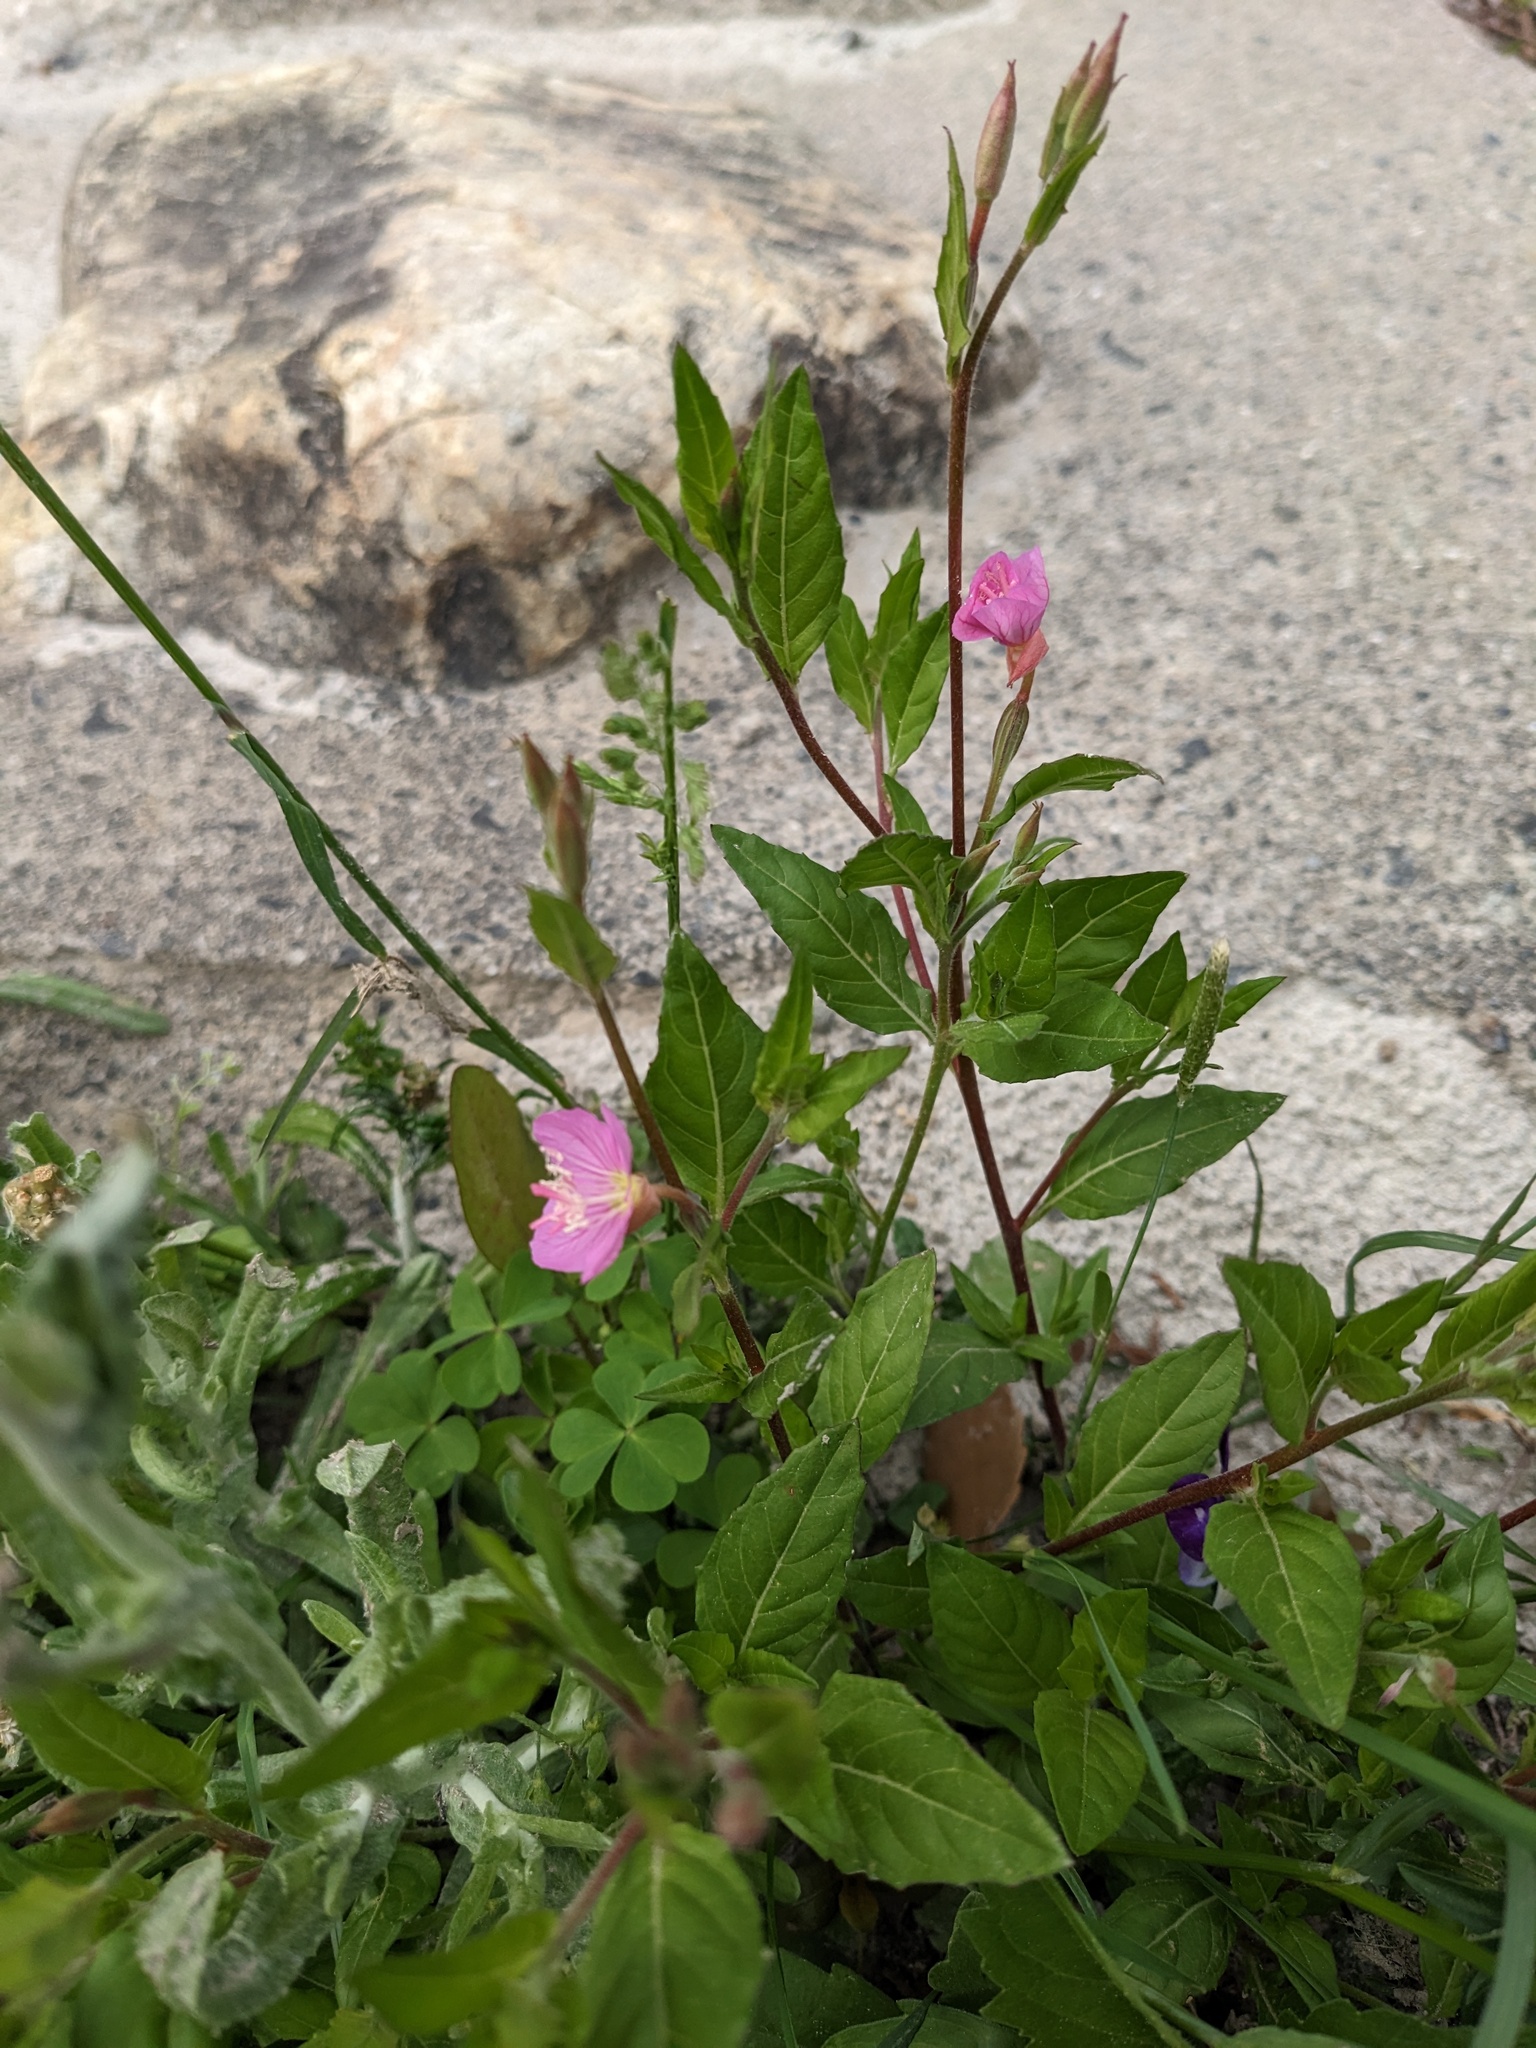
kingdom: Plantae
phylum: Tracheophyta
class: Magnoliopsida
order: Myrtales
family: Onagraceae
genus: Oenothera
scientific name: Oenothera rosea
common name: Rosy evening-primrose
